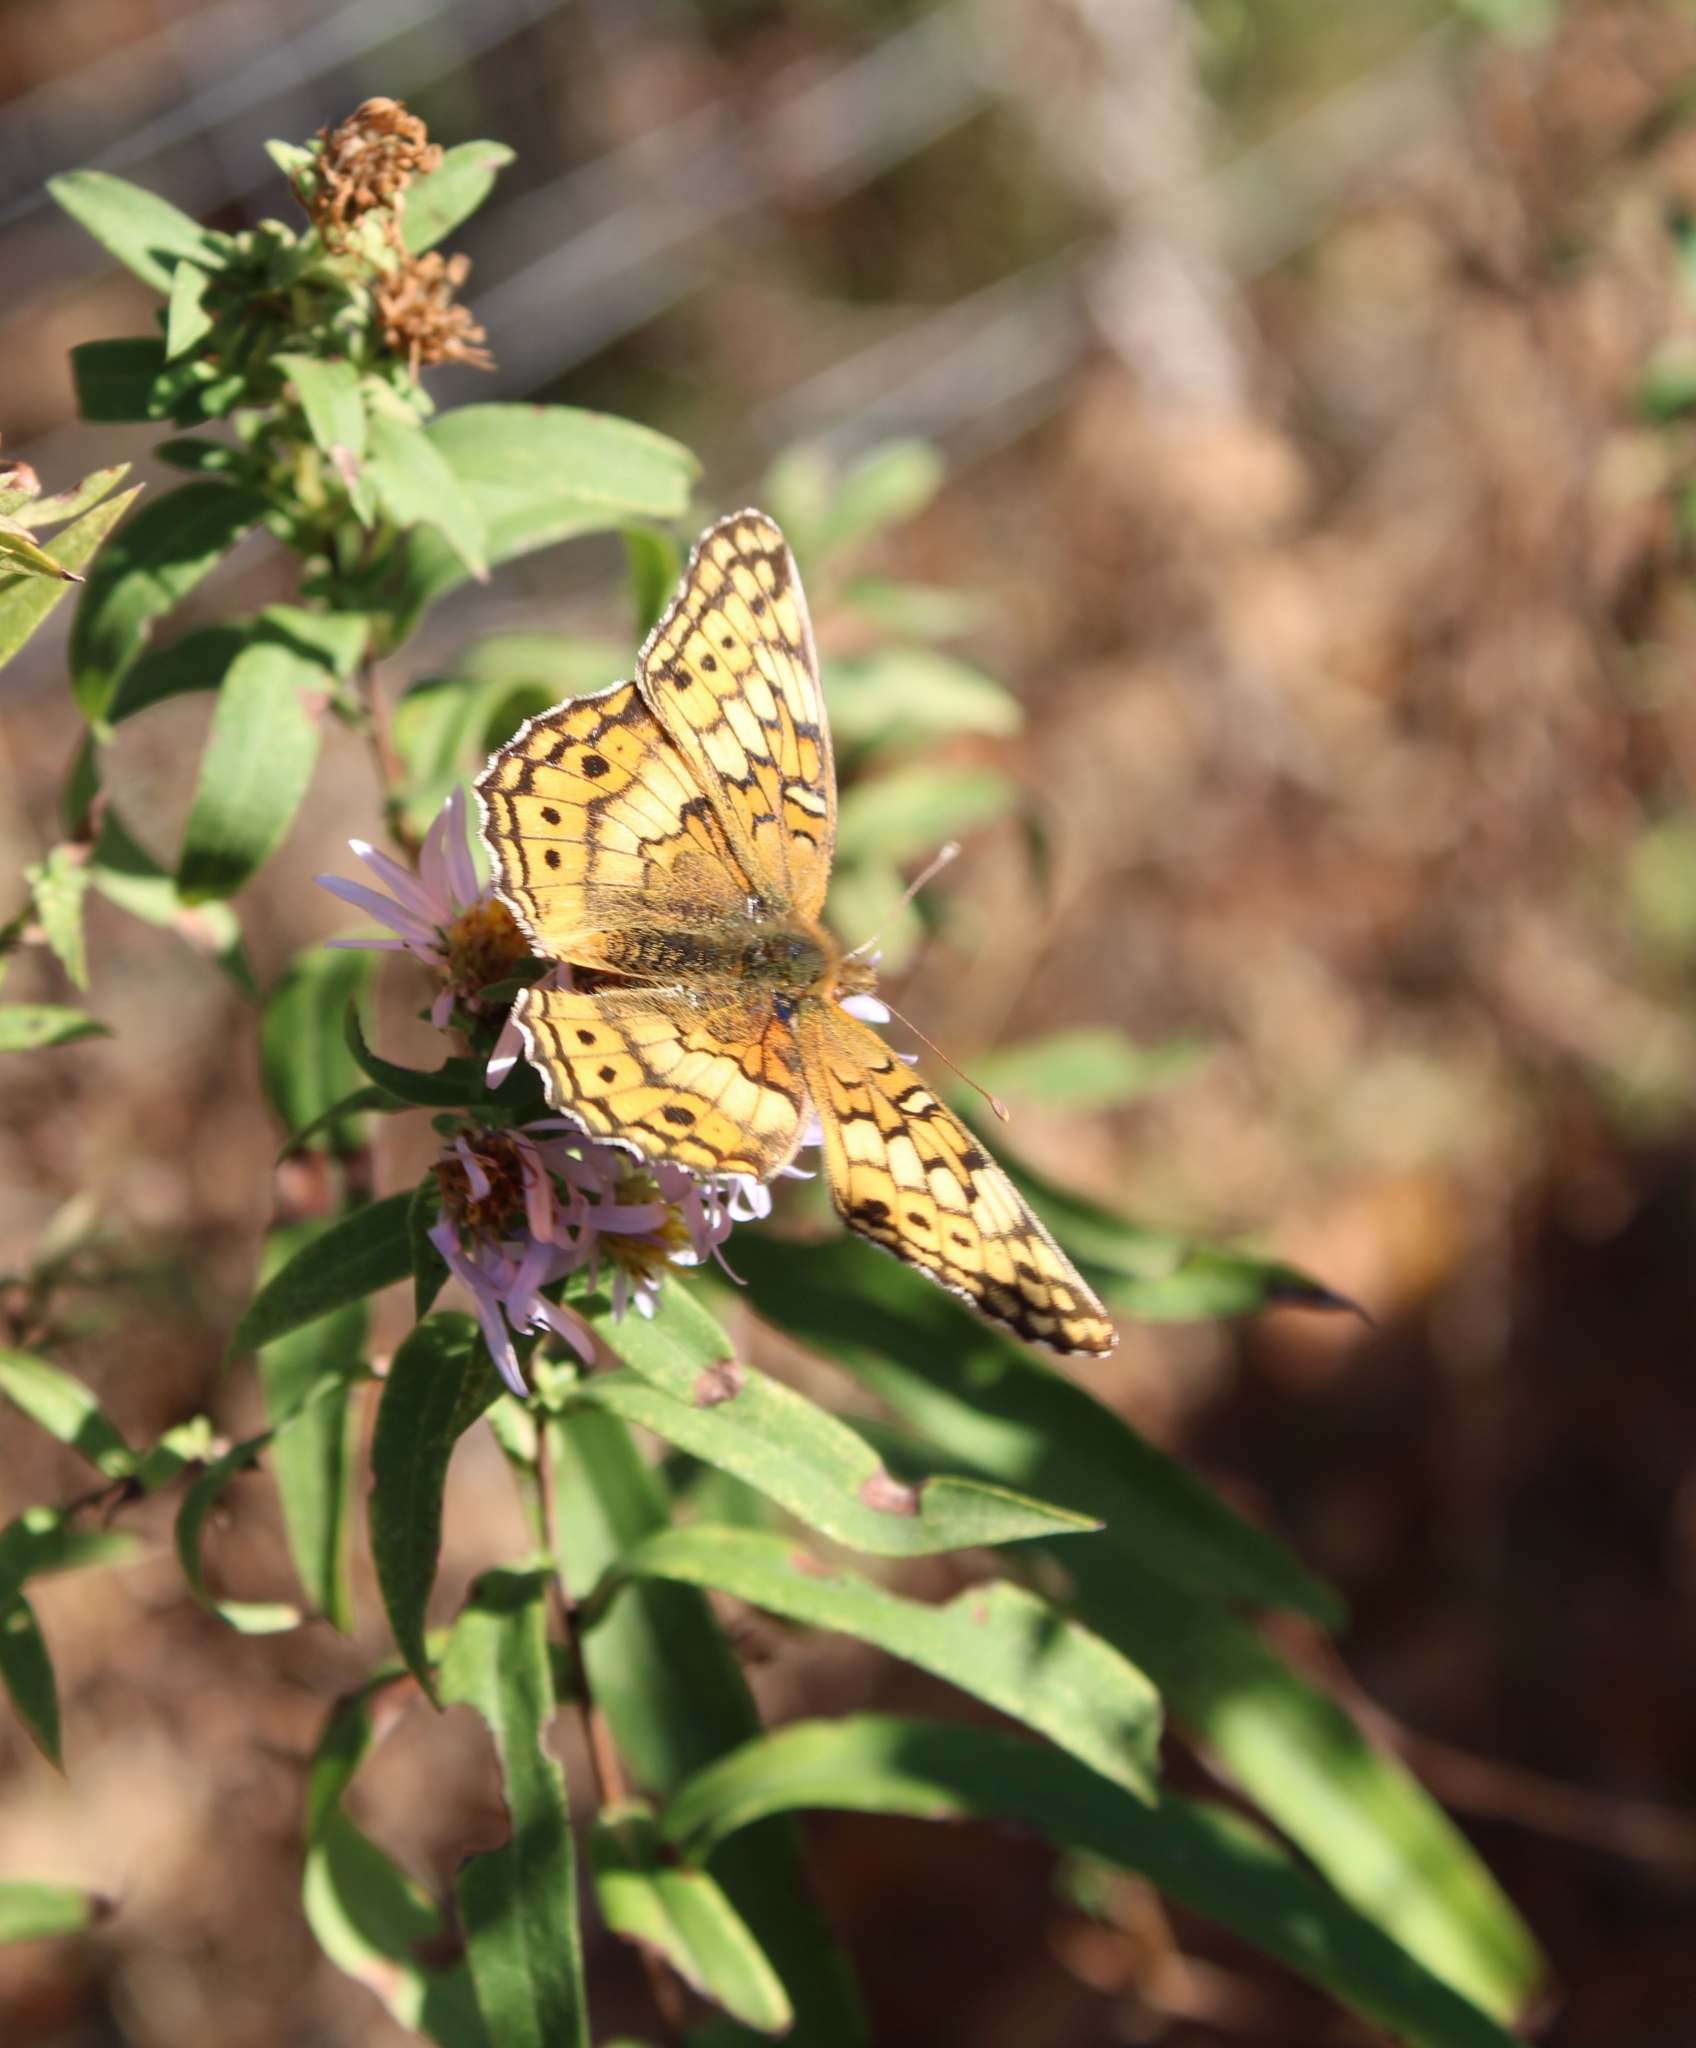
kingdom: Animalia
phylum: Arthropoda
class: Insecta
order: Lepidoptera
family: Nymphalidae
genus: Euptoieta
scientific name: Euptoieta claudia
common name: Variegated fritillary
